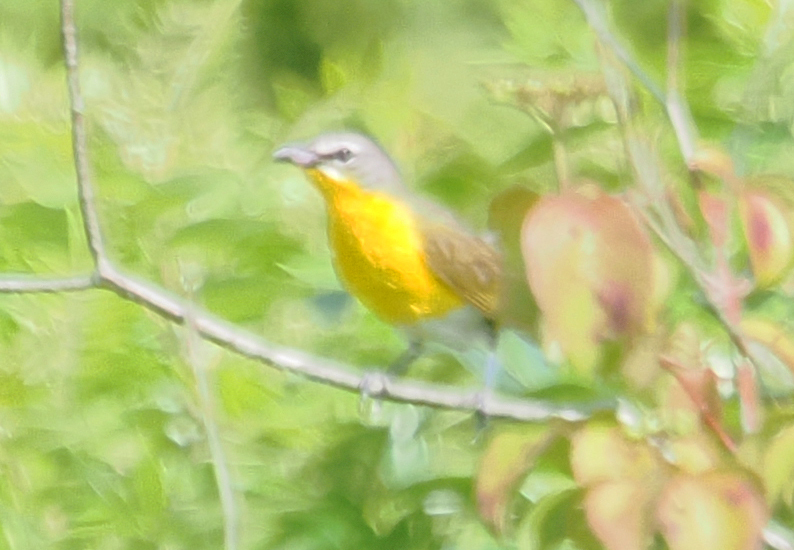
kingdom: Animalia
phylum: Chordata
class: Aves
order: Passeriformes
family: Parulidae
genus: Icteria
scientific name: Icteria virens
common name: Yellow-breasted chat
